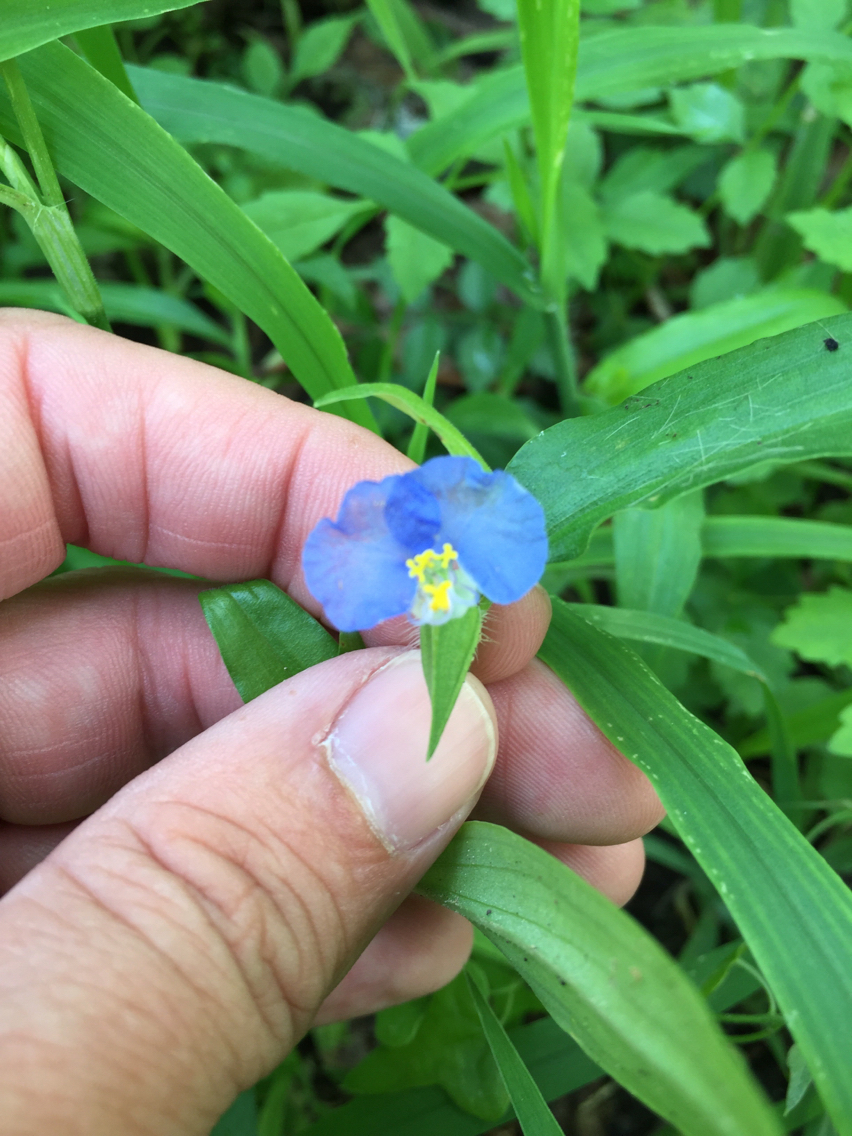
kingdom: Plantae
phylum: Tracheophyta
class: Liliopsida
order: Commelinales
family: Commelinaceae
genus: Commelina
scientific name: Commelina erecta
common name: Blousel blommetjie
